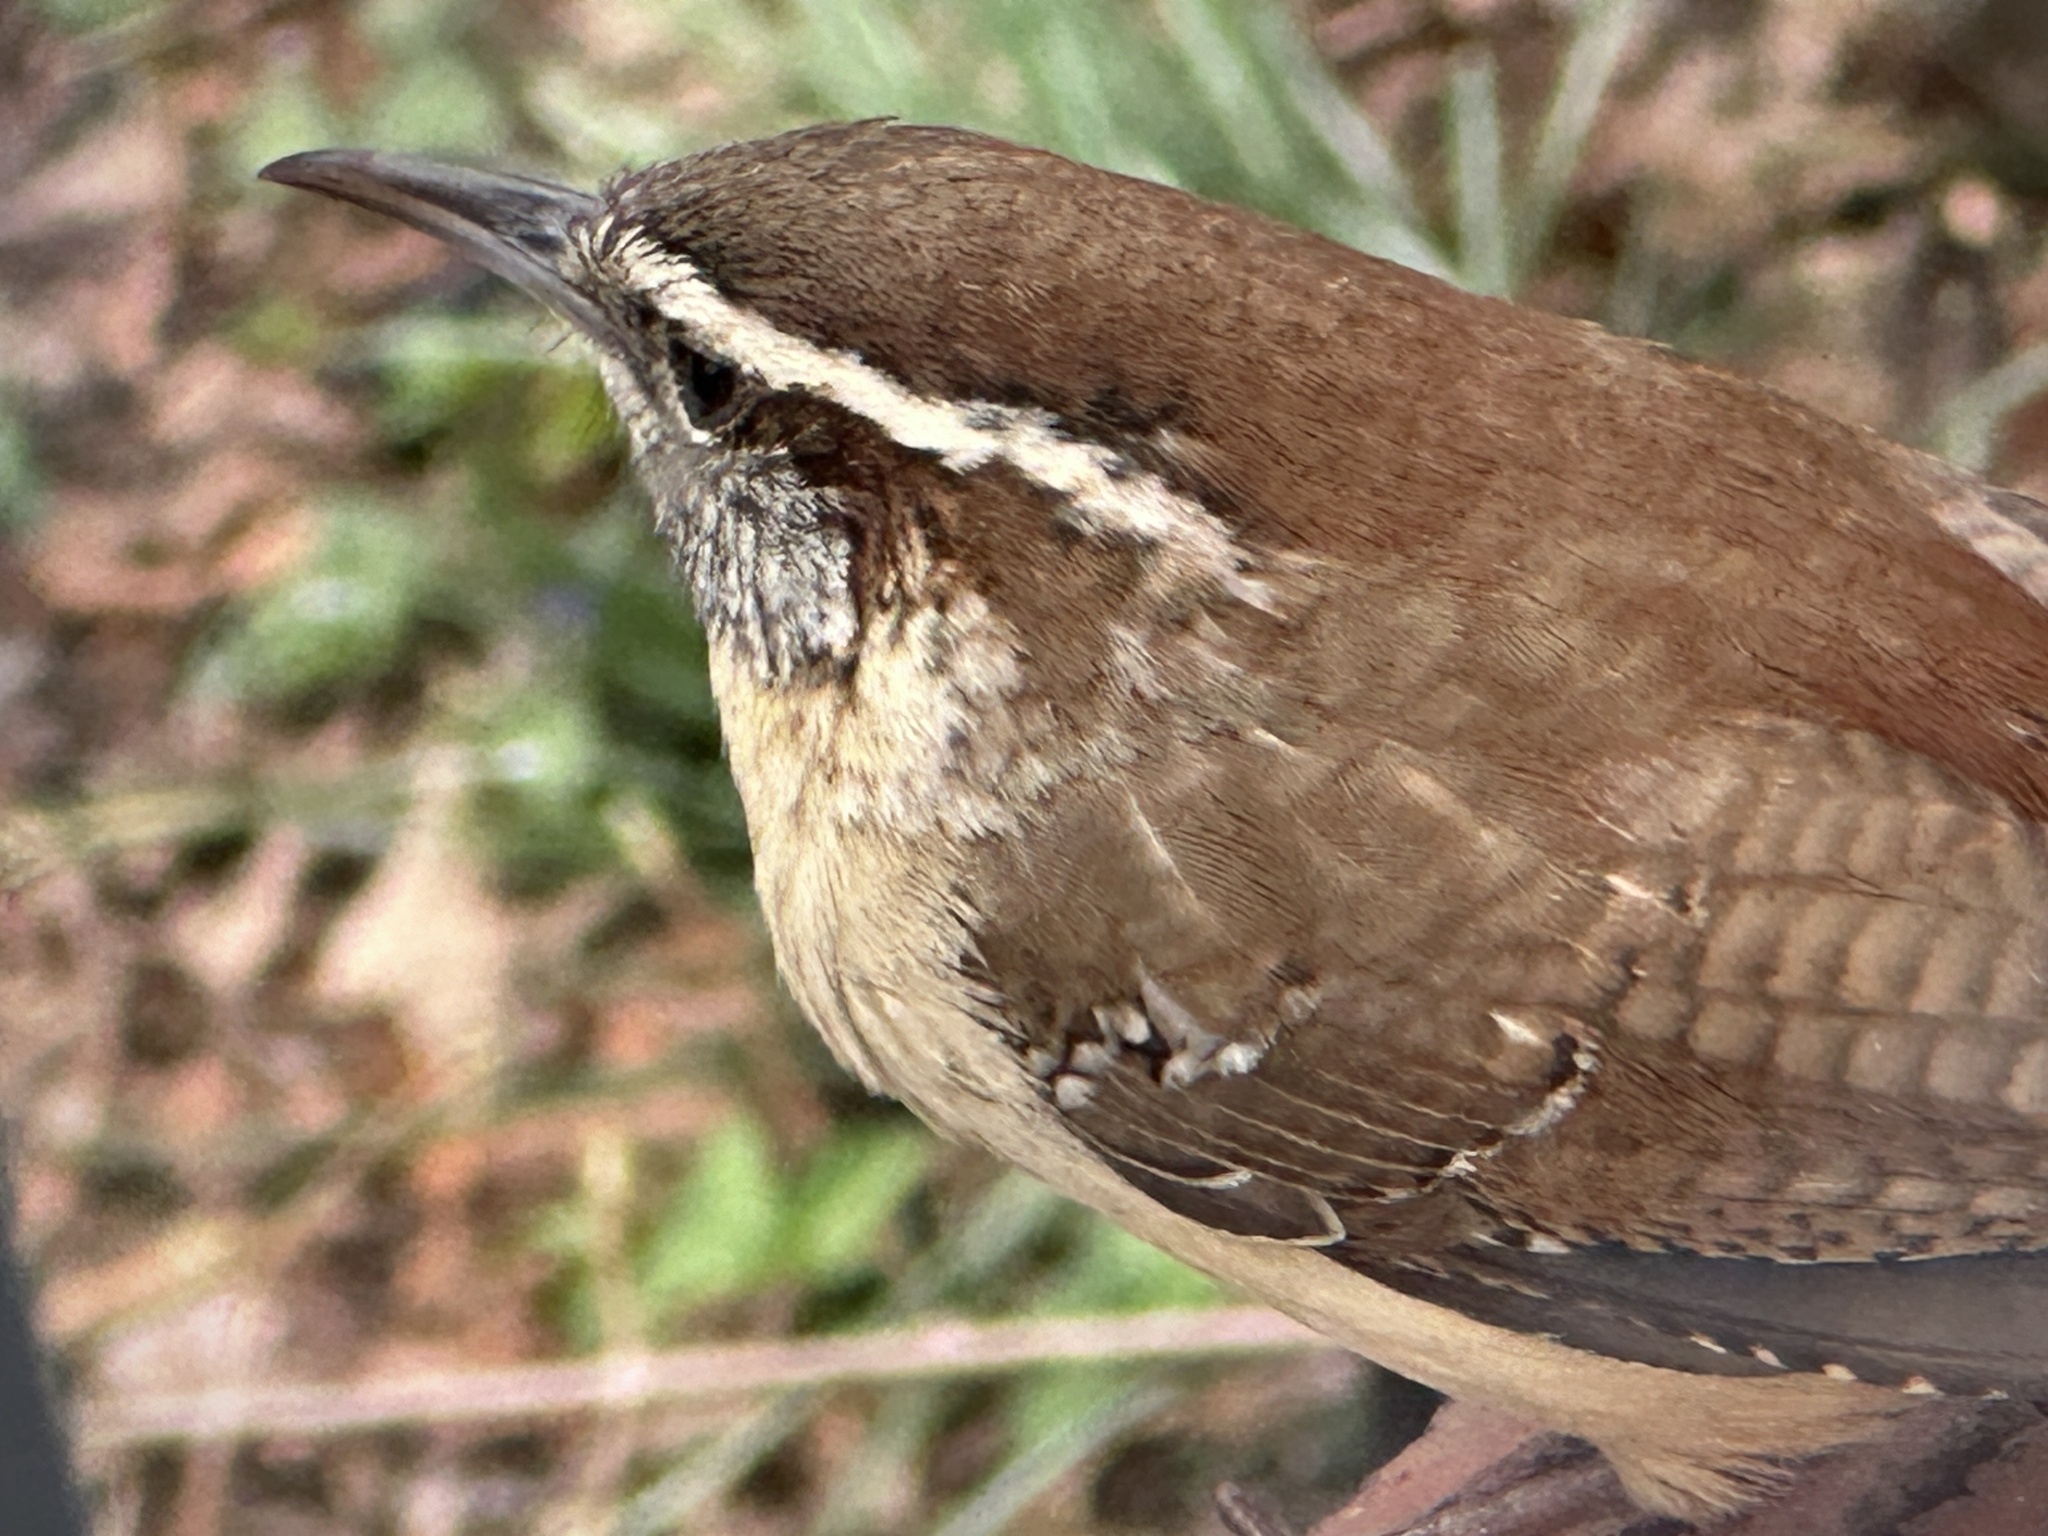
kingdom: Animalia
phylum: Chordata
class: Aves
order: Passeriformes
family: Troglodytidae
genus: Thryothorus
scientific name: Thryothorus ludovicianus
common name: Carolina wren
